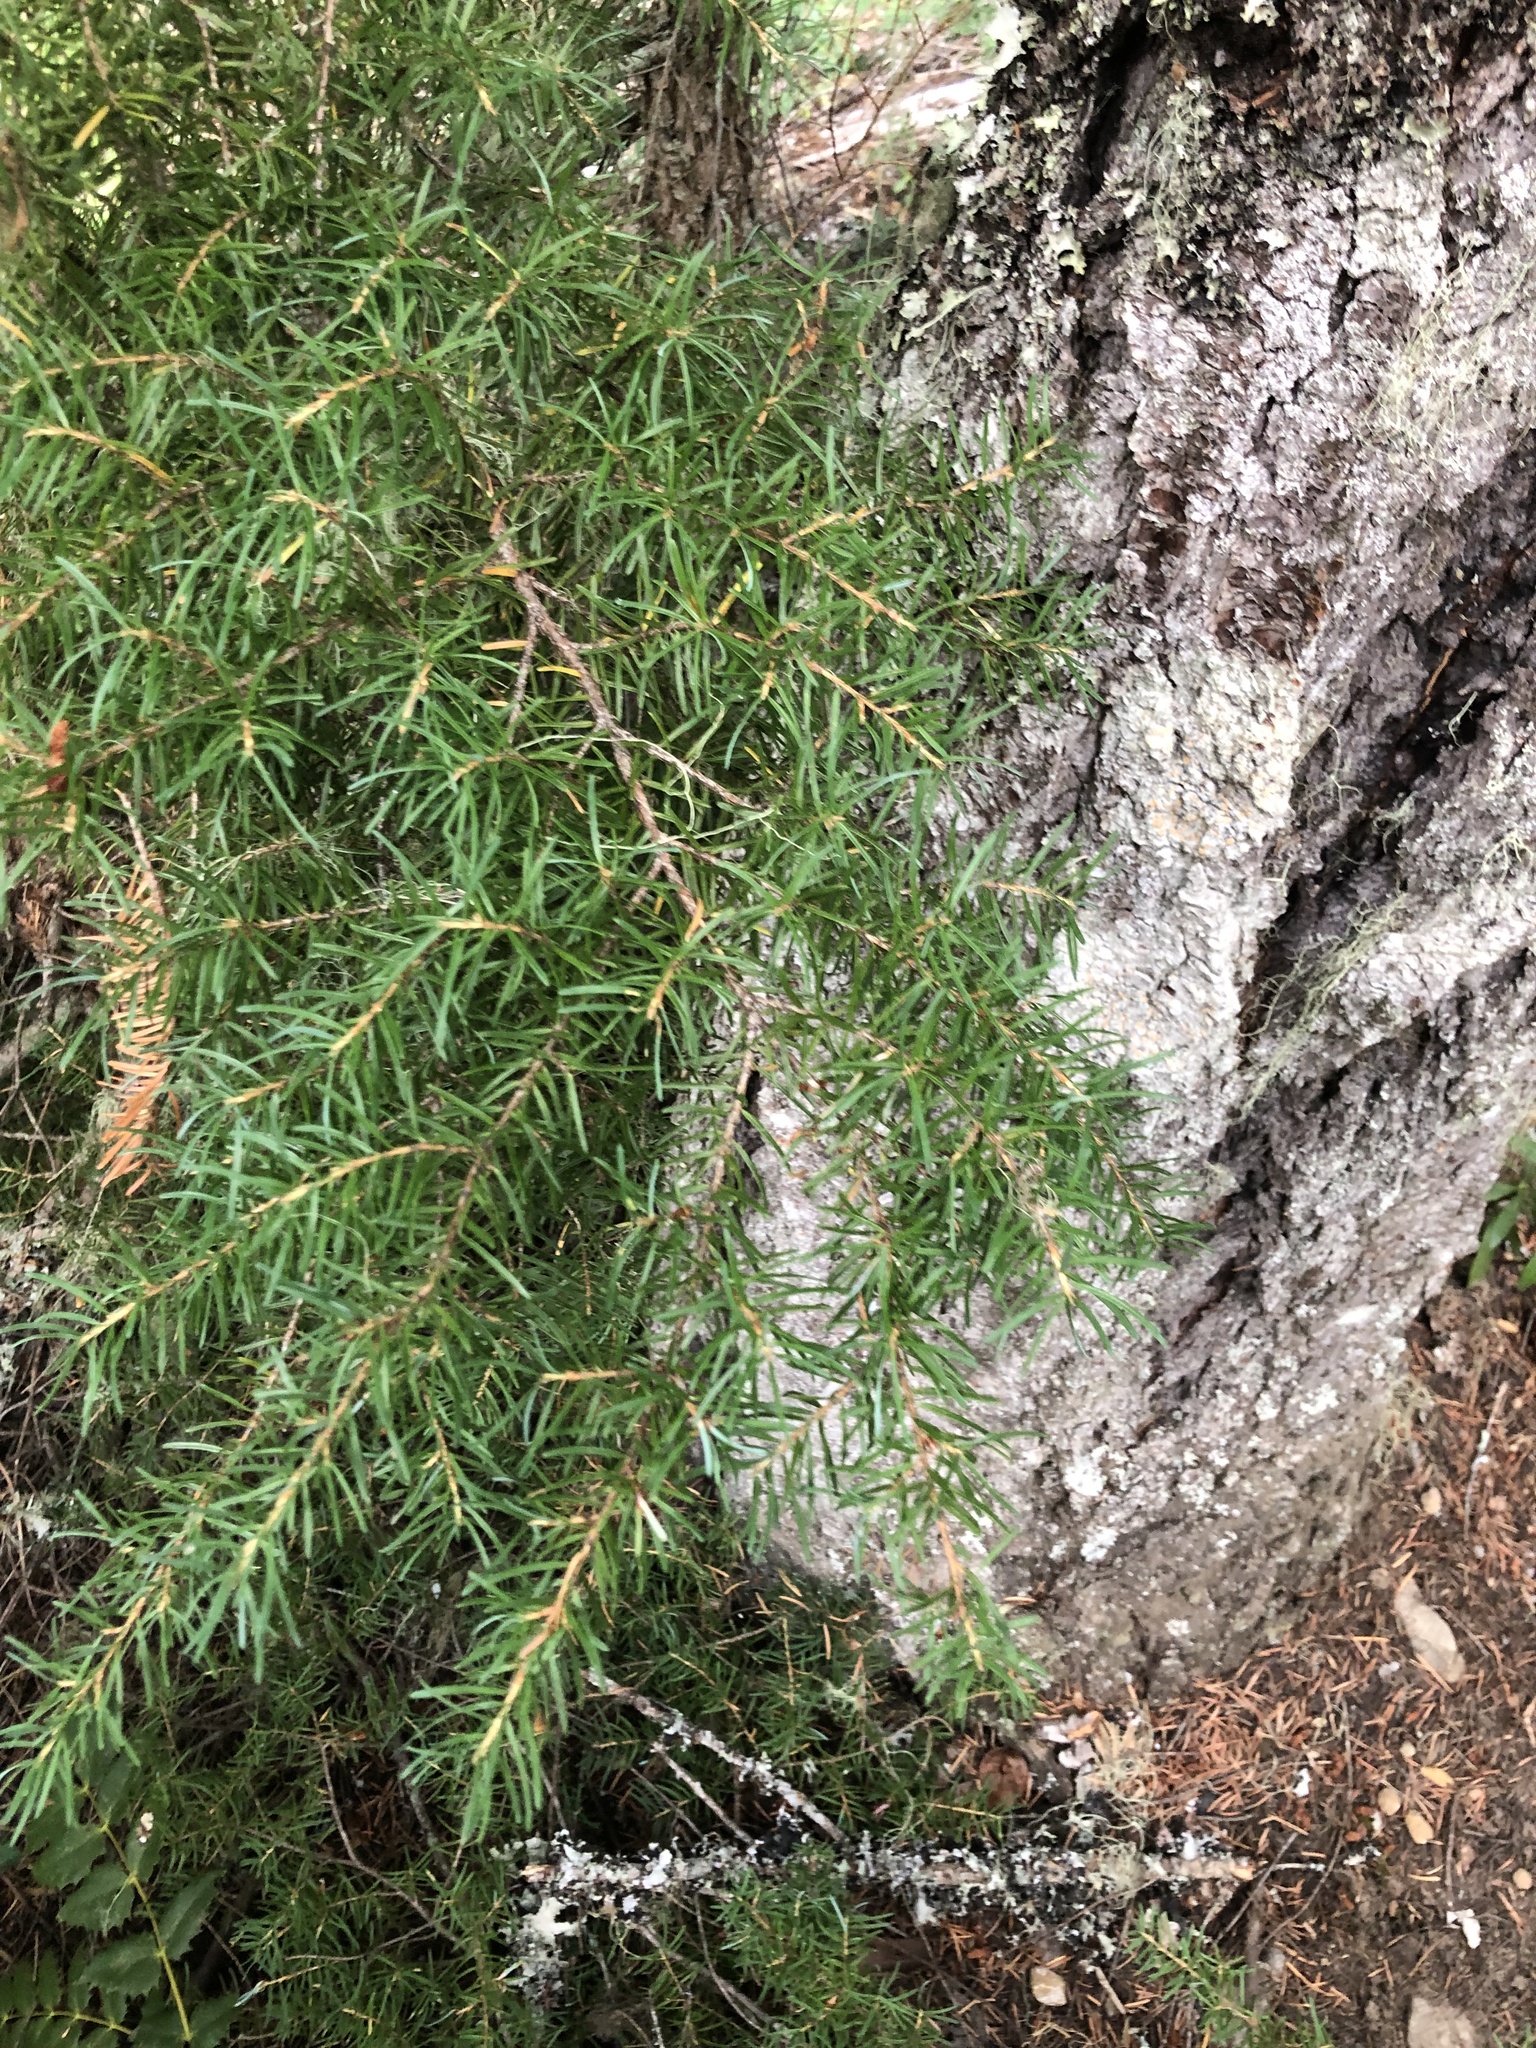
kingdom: Plantae
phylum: Tracheophyta
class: Pinopsida
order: Pinales
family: Pinaceae
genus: Tsuga
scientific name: Tsuga mertensiana
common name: Mountain hemlock
